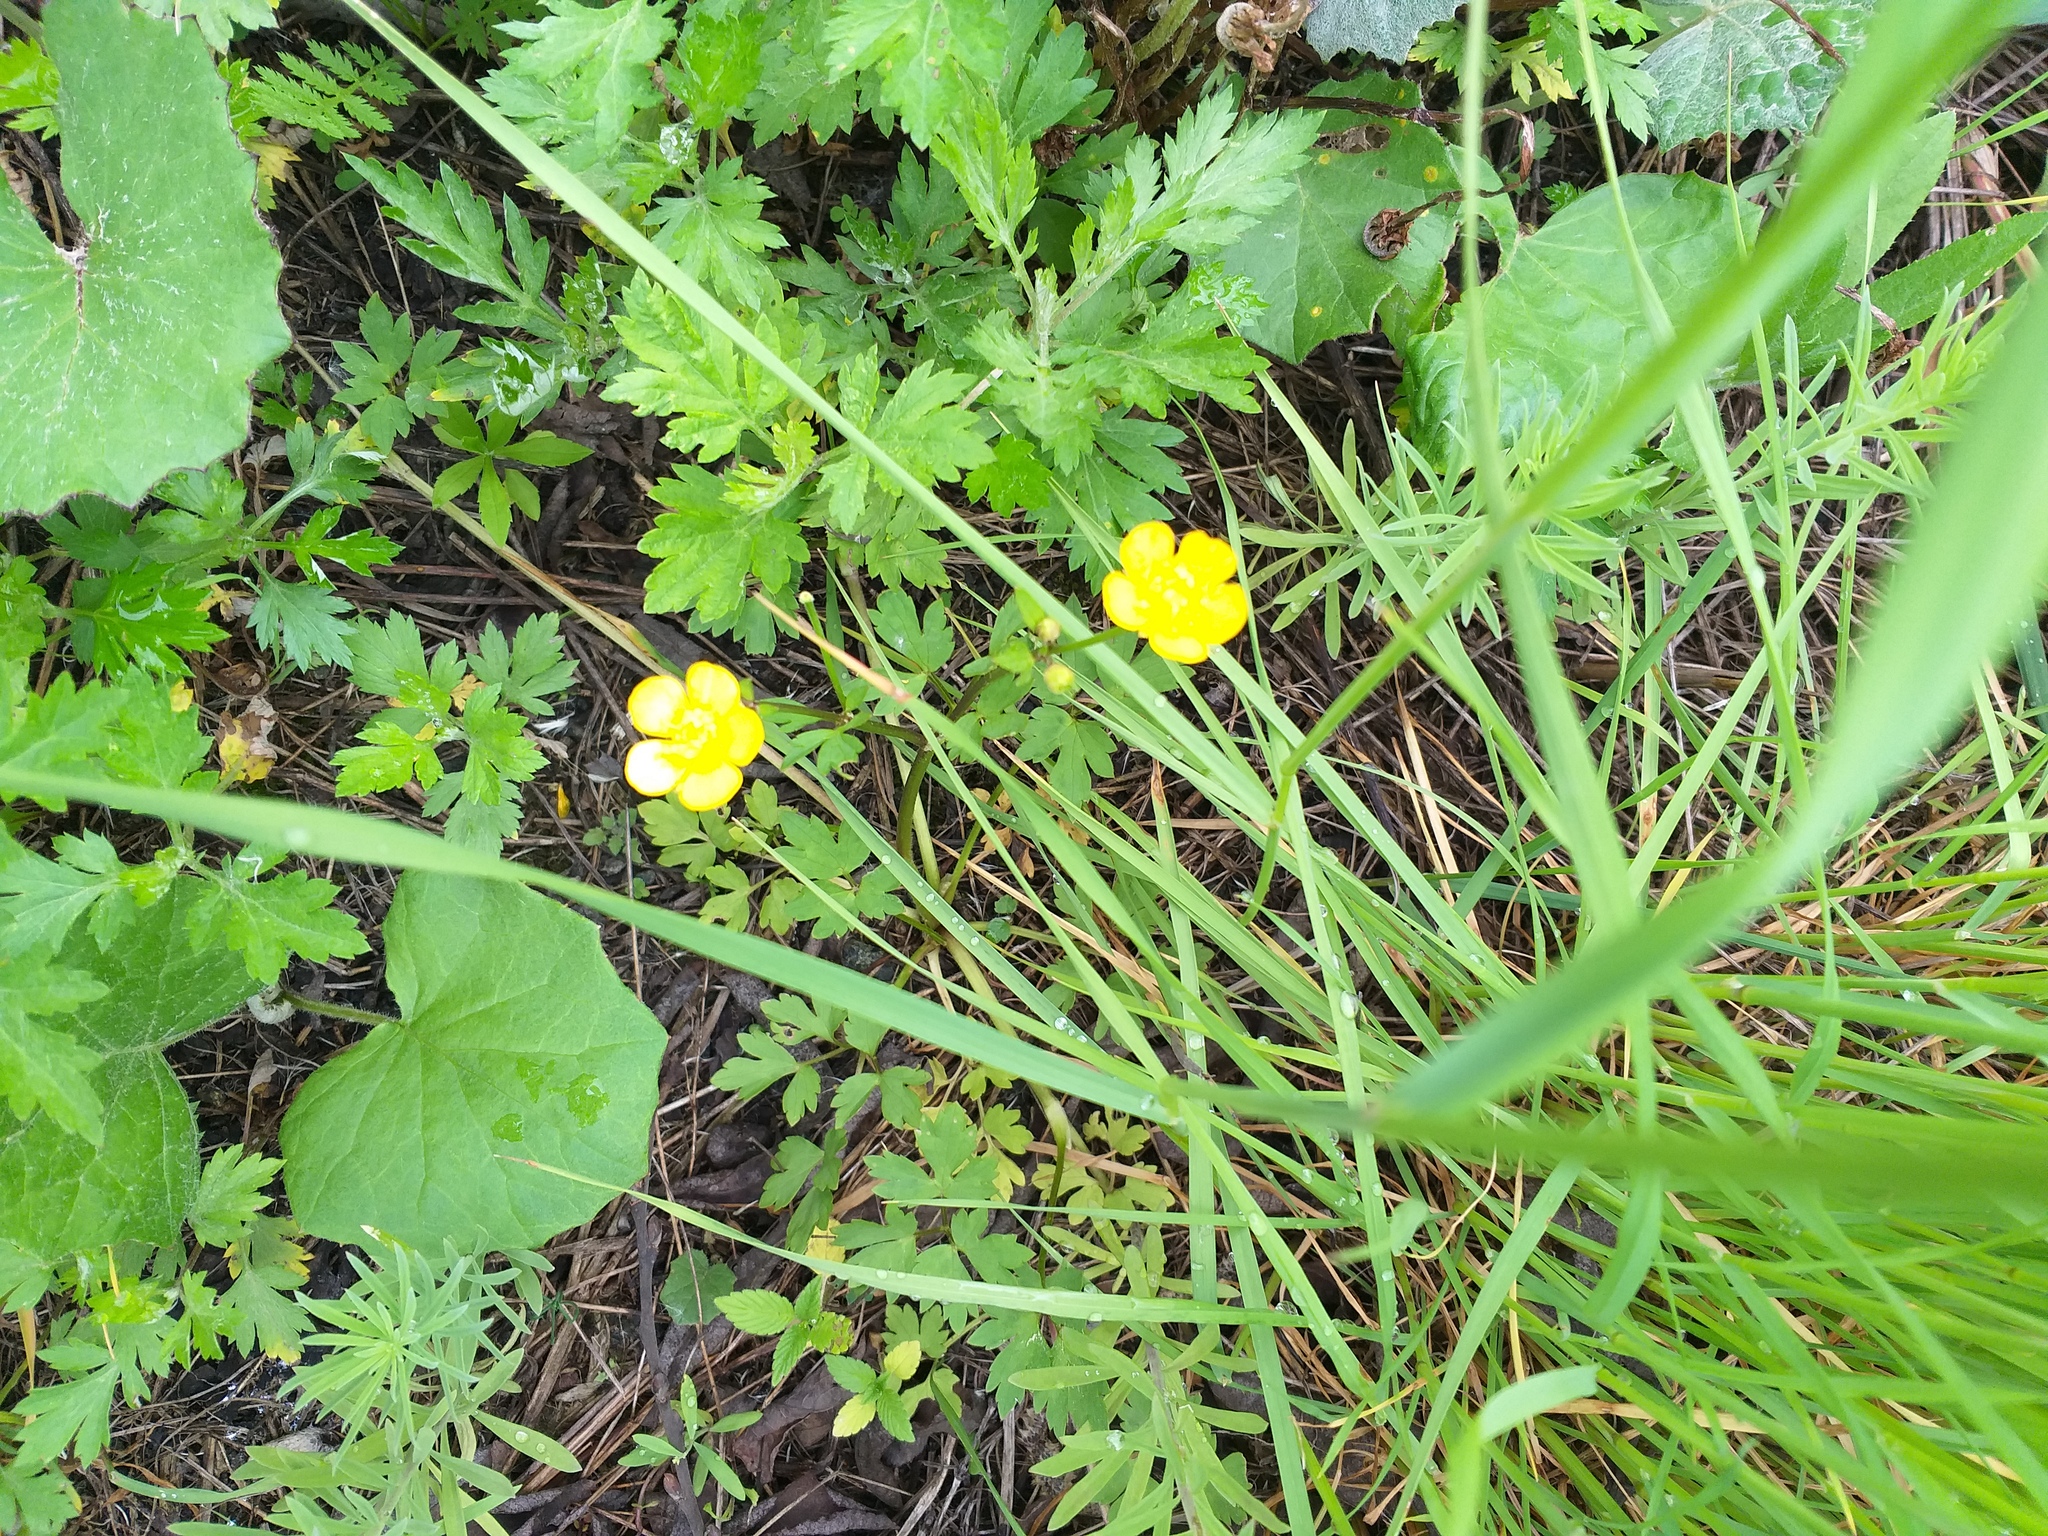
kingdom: Plantae
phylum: Tracheophyta
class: Magnoliopsida
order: Ranunculales
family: Ranunculaceae
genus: Ranunculus
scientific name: Ranunculus repens
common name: Creeping buttercup
